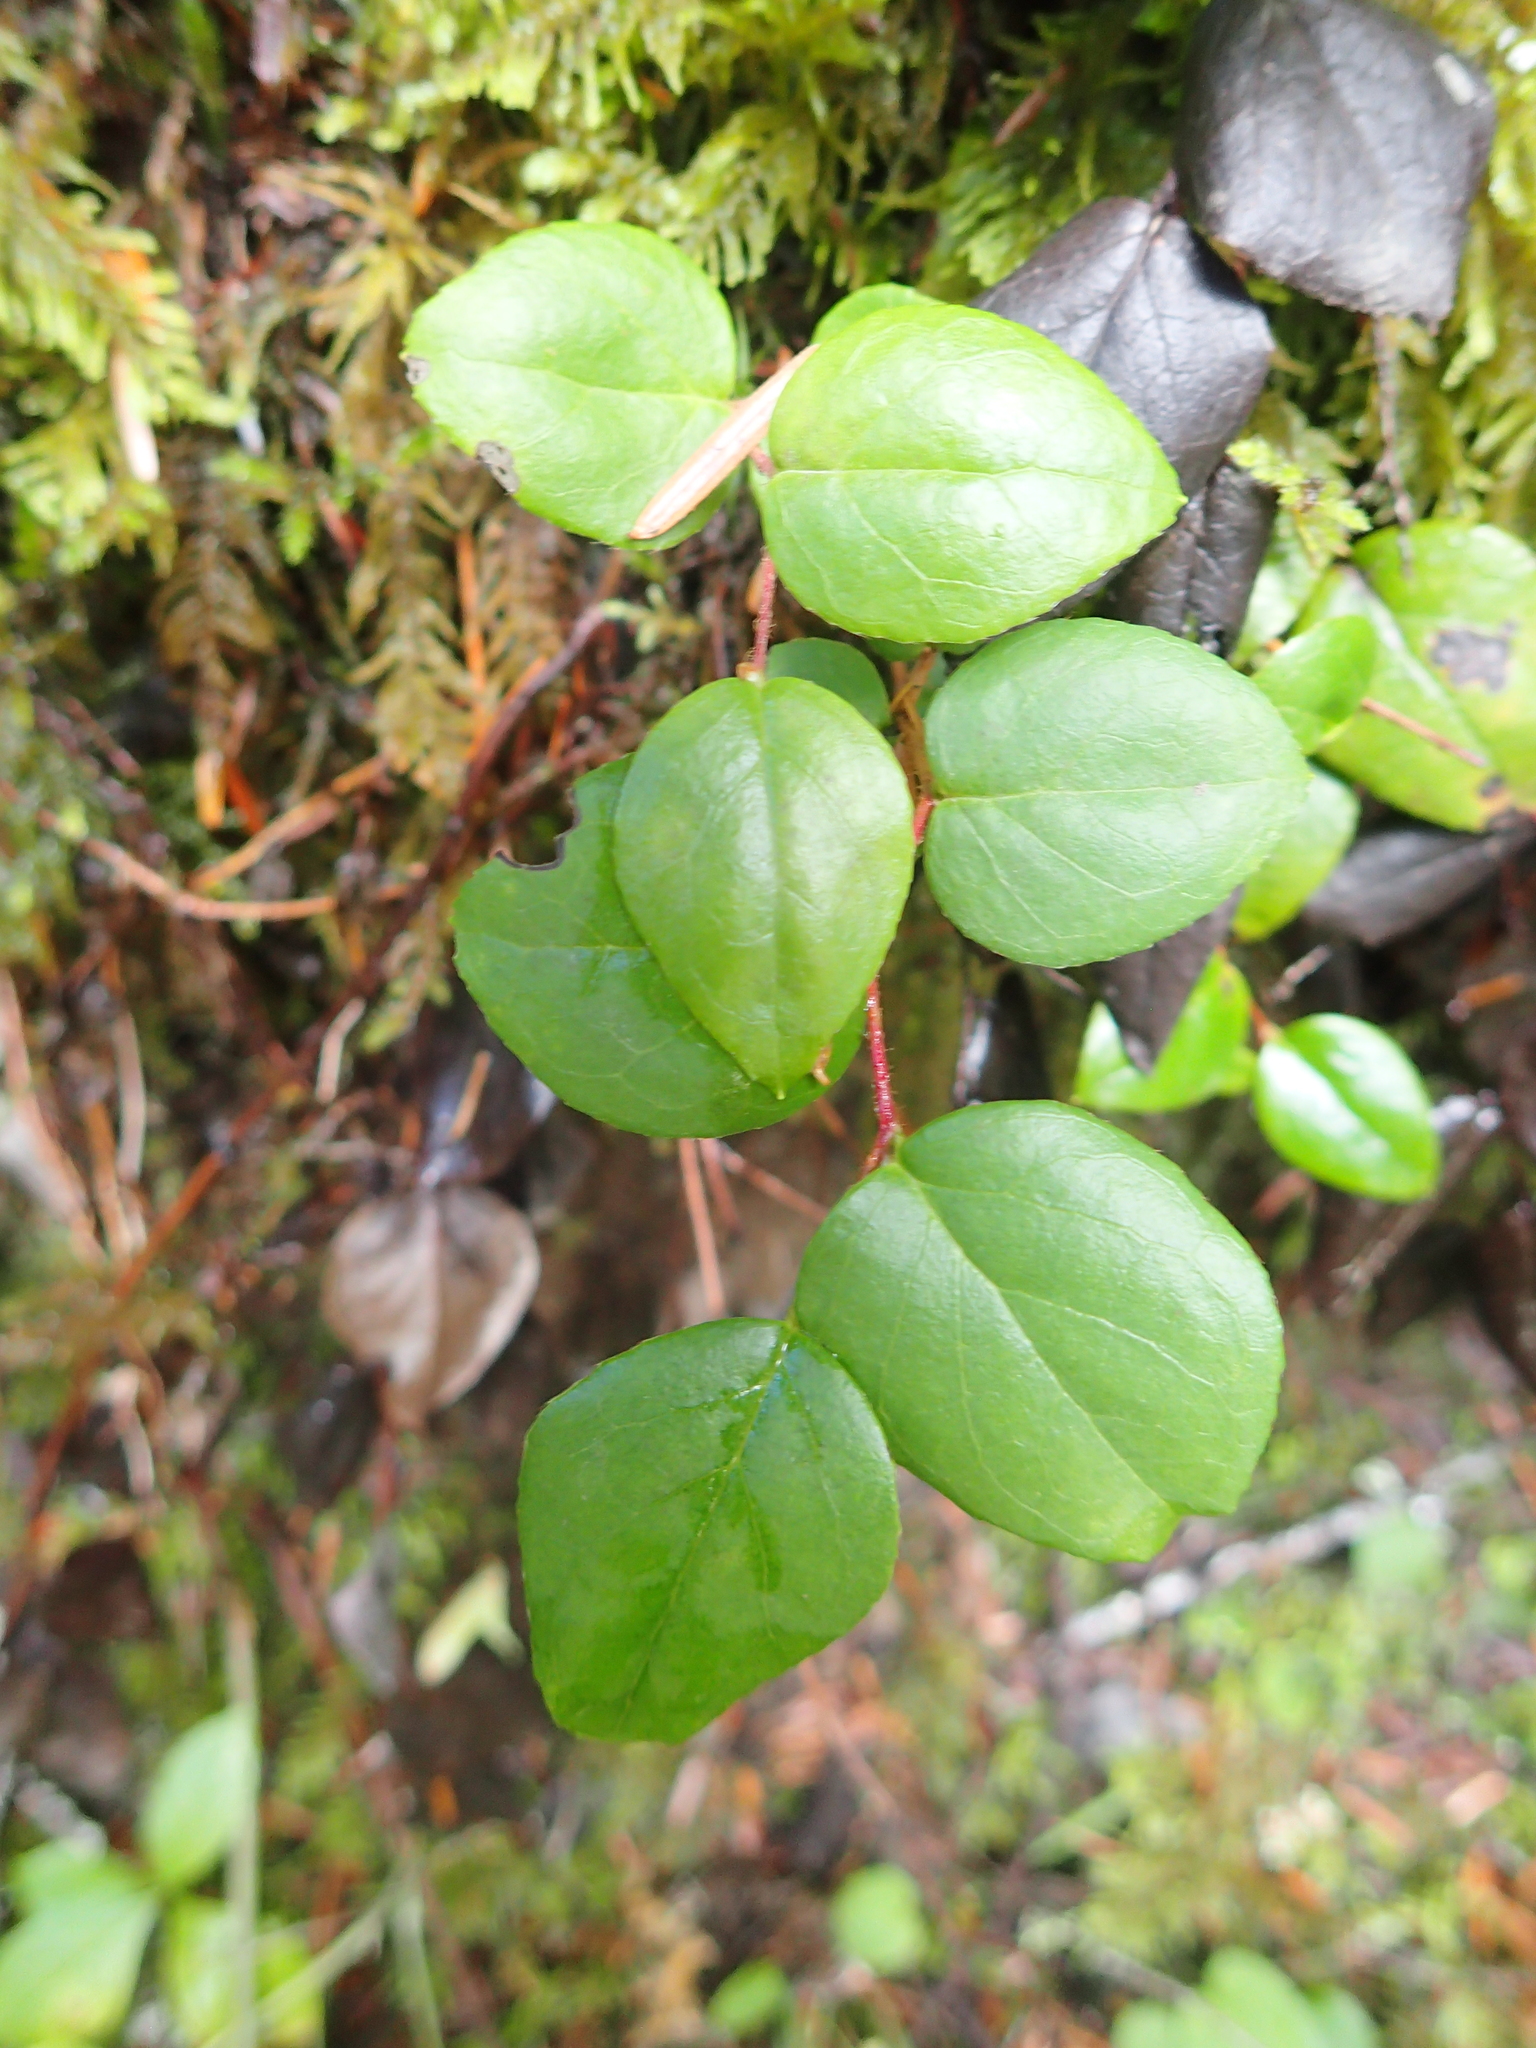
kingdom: Plantae
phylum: Tracheophyta
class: Magnoliopsida
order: Ericales
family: Ericaceae
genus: Gaultheria
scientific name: Gaultheria ovatifolia
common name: Oregon wintergreen
